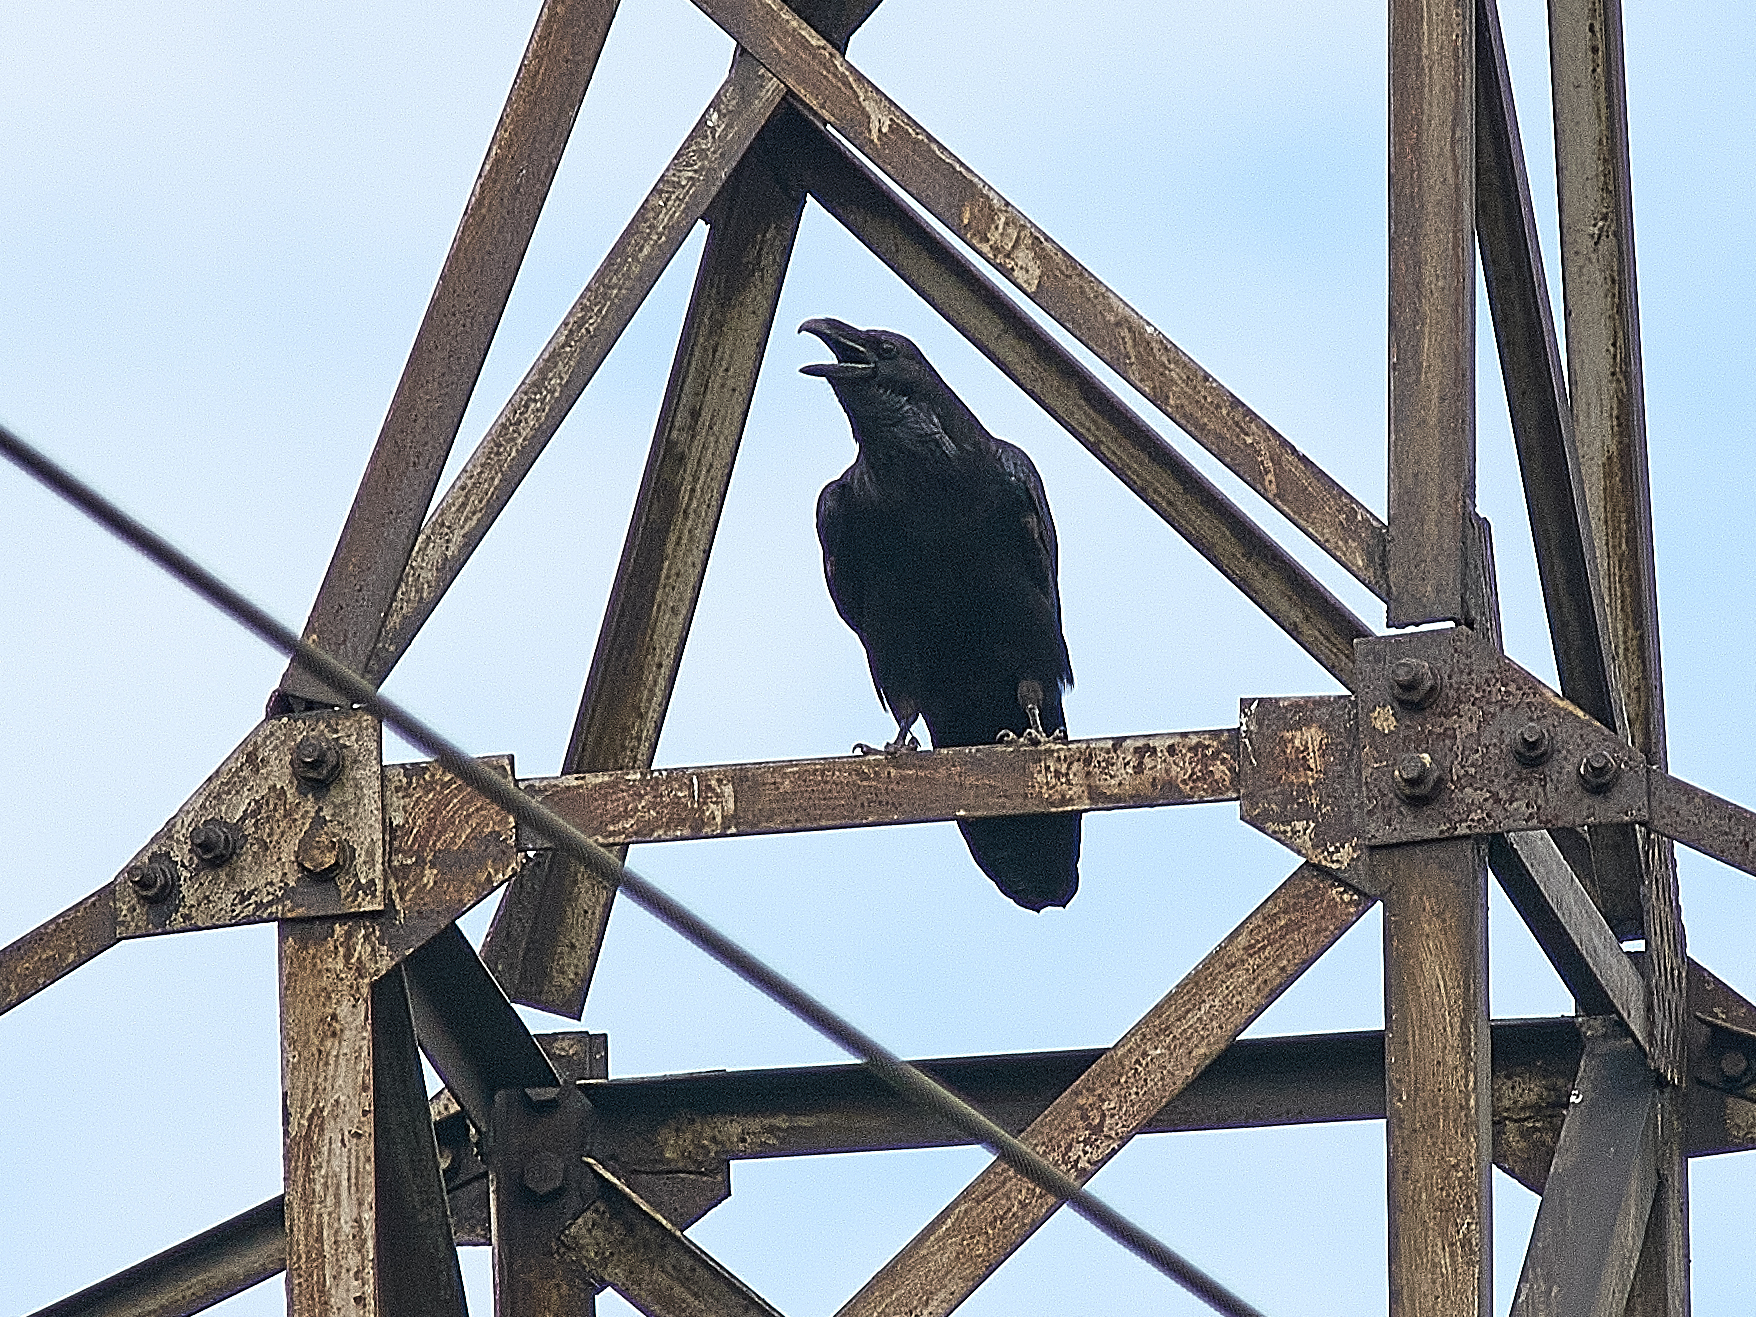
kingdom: Animalia
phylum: Chordata
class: Aves
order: Passeriformes
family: Corvidae
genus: Corvus
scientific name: Corvus corax
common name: Common raven
